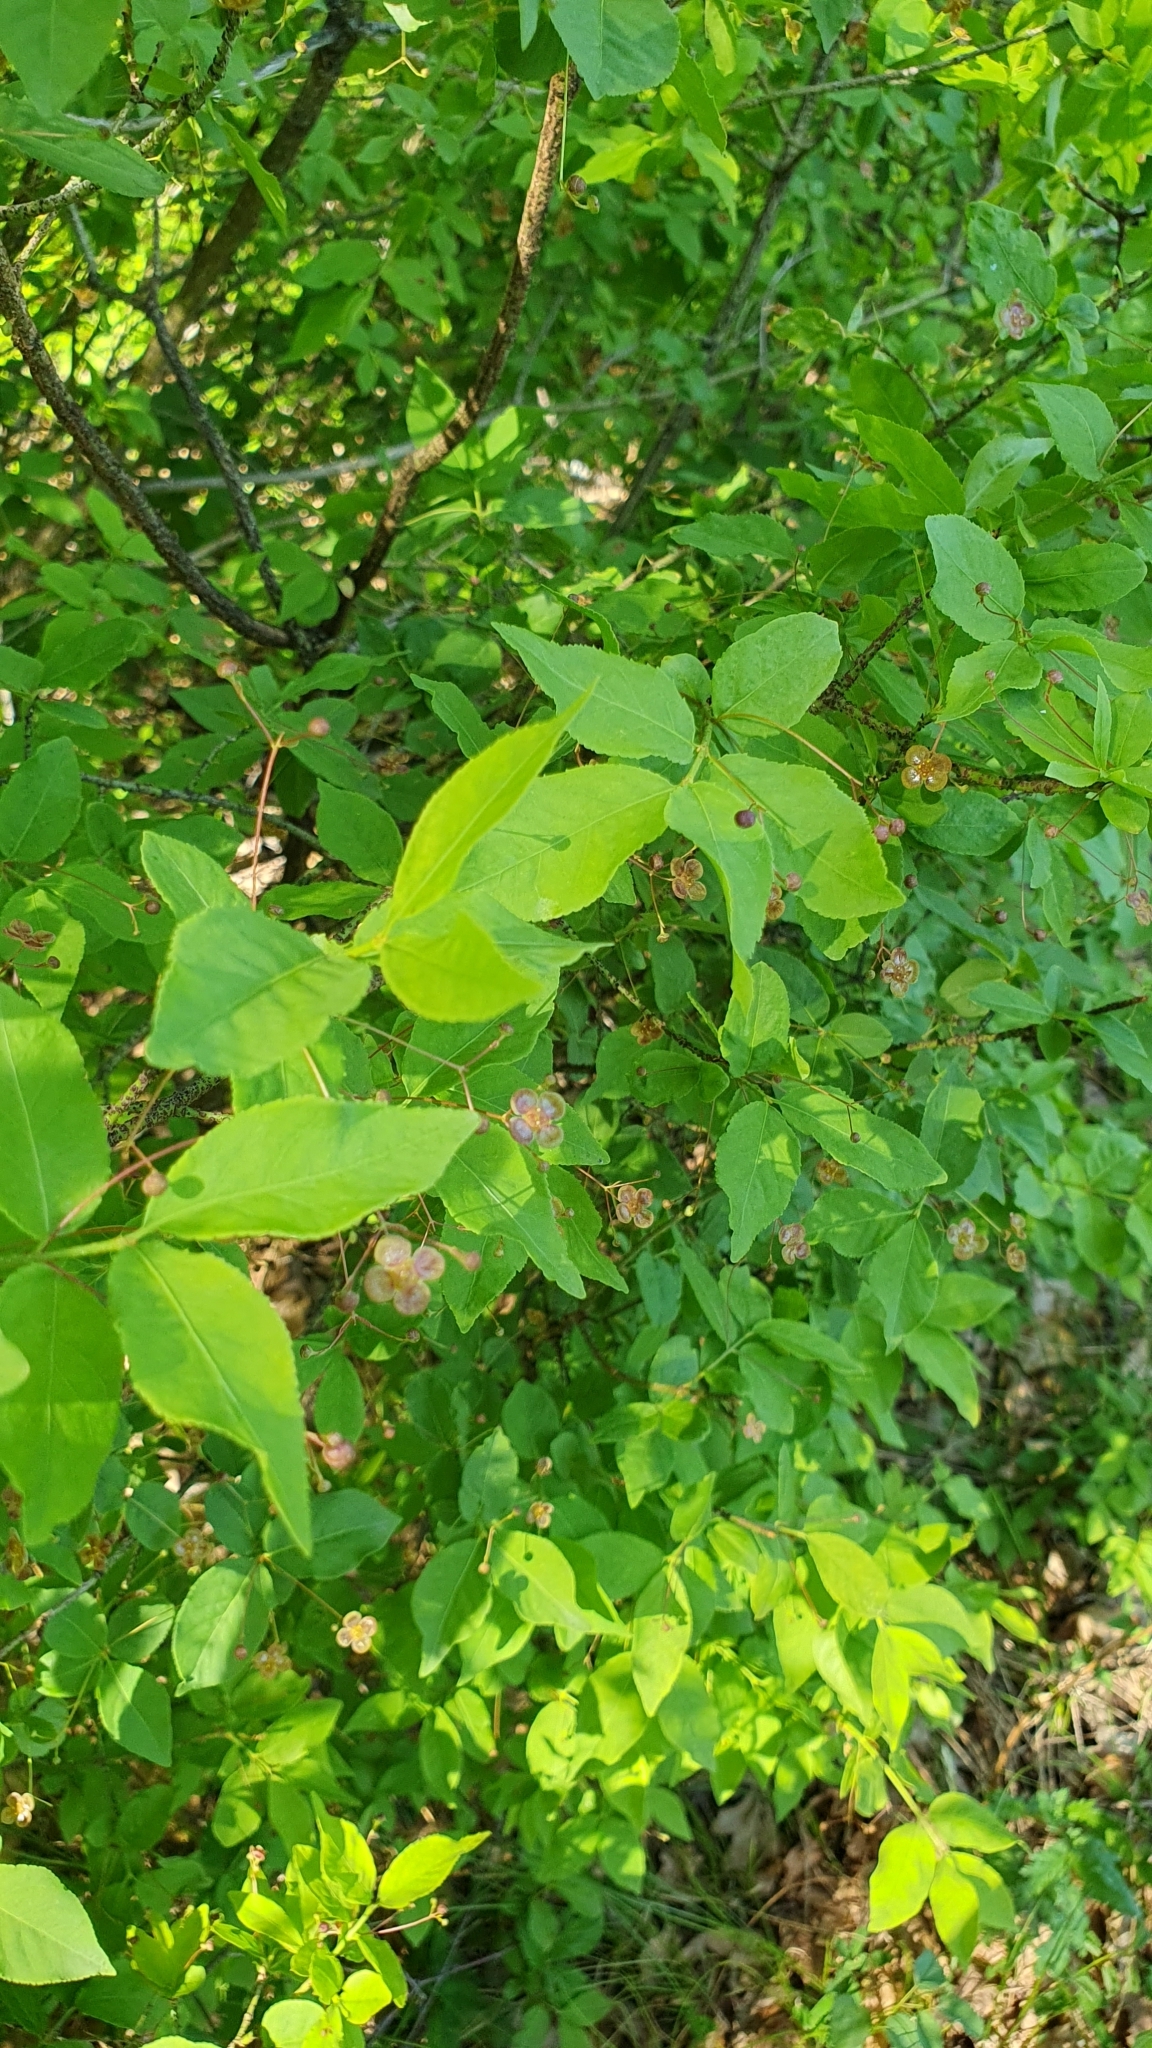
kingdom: Plantae
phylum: Tracheophyta
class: Magnoliopsida
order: Celastrales
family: Celastraceae
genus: Euonymus
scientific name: Euonymus verrucosus
